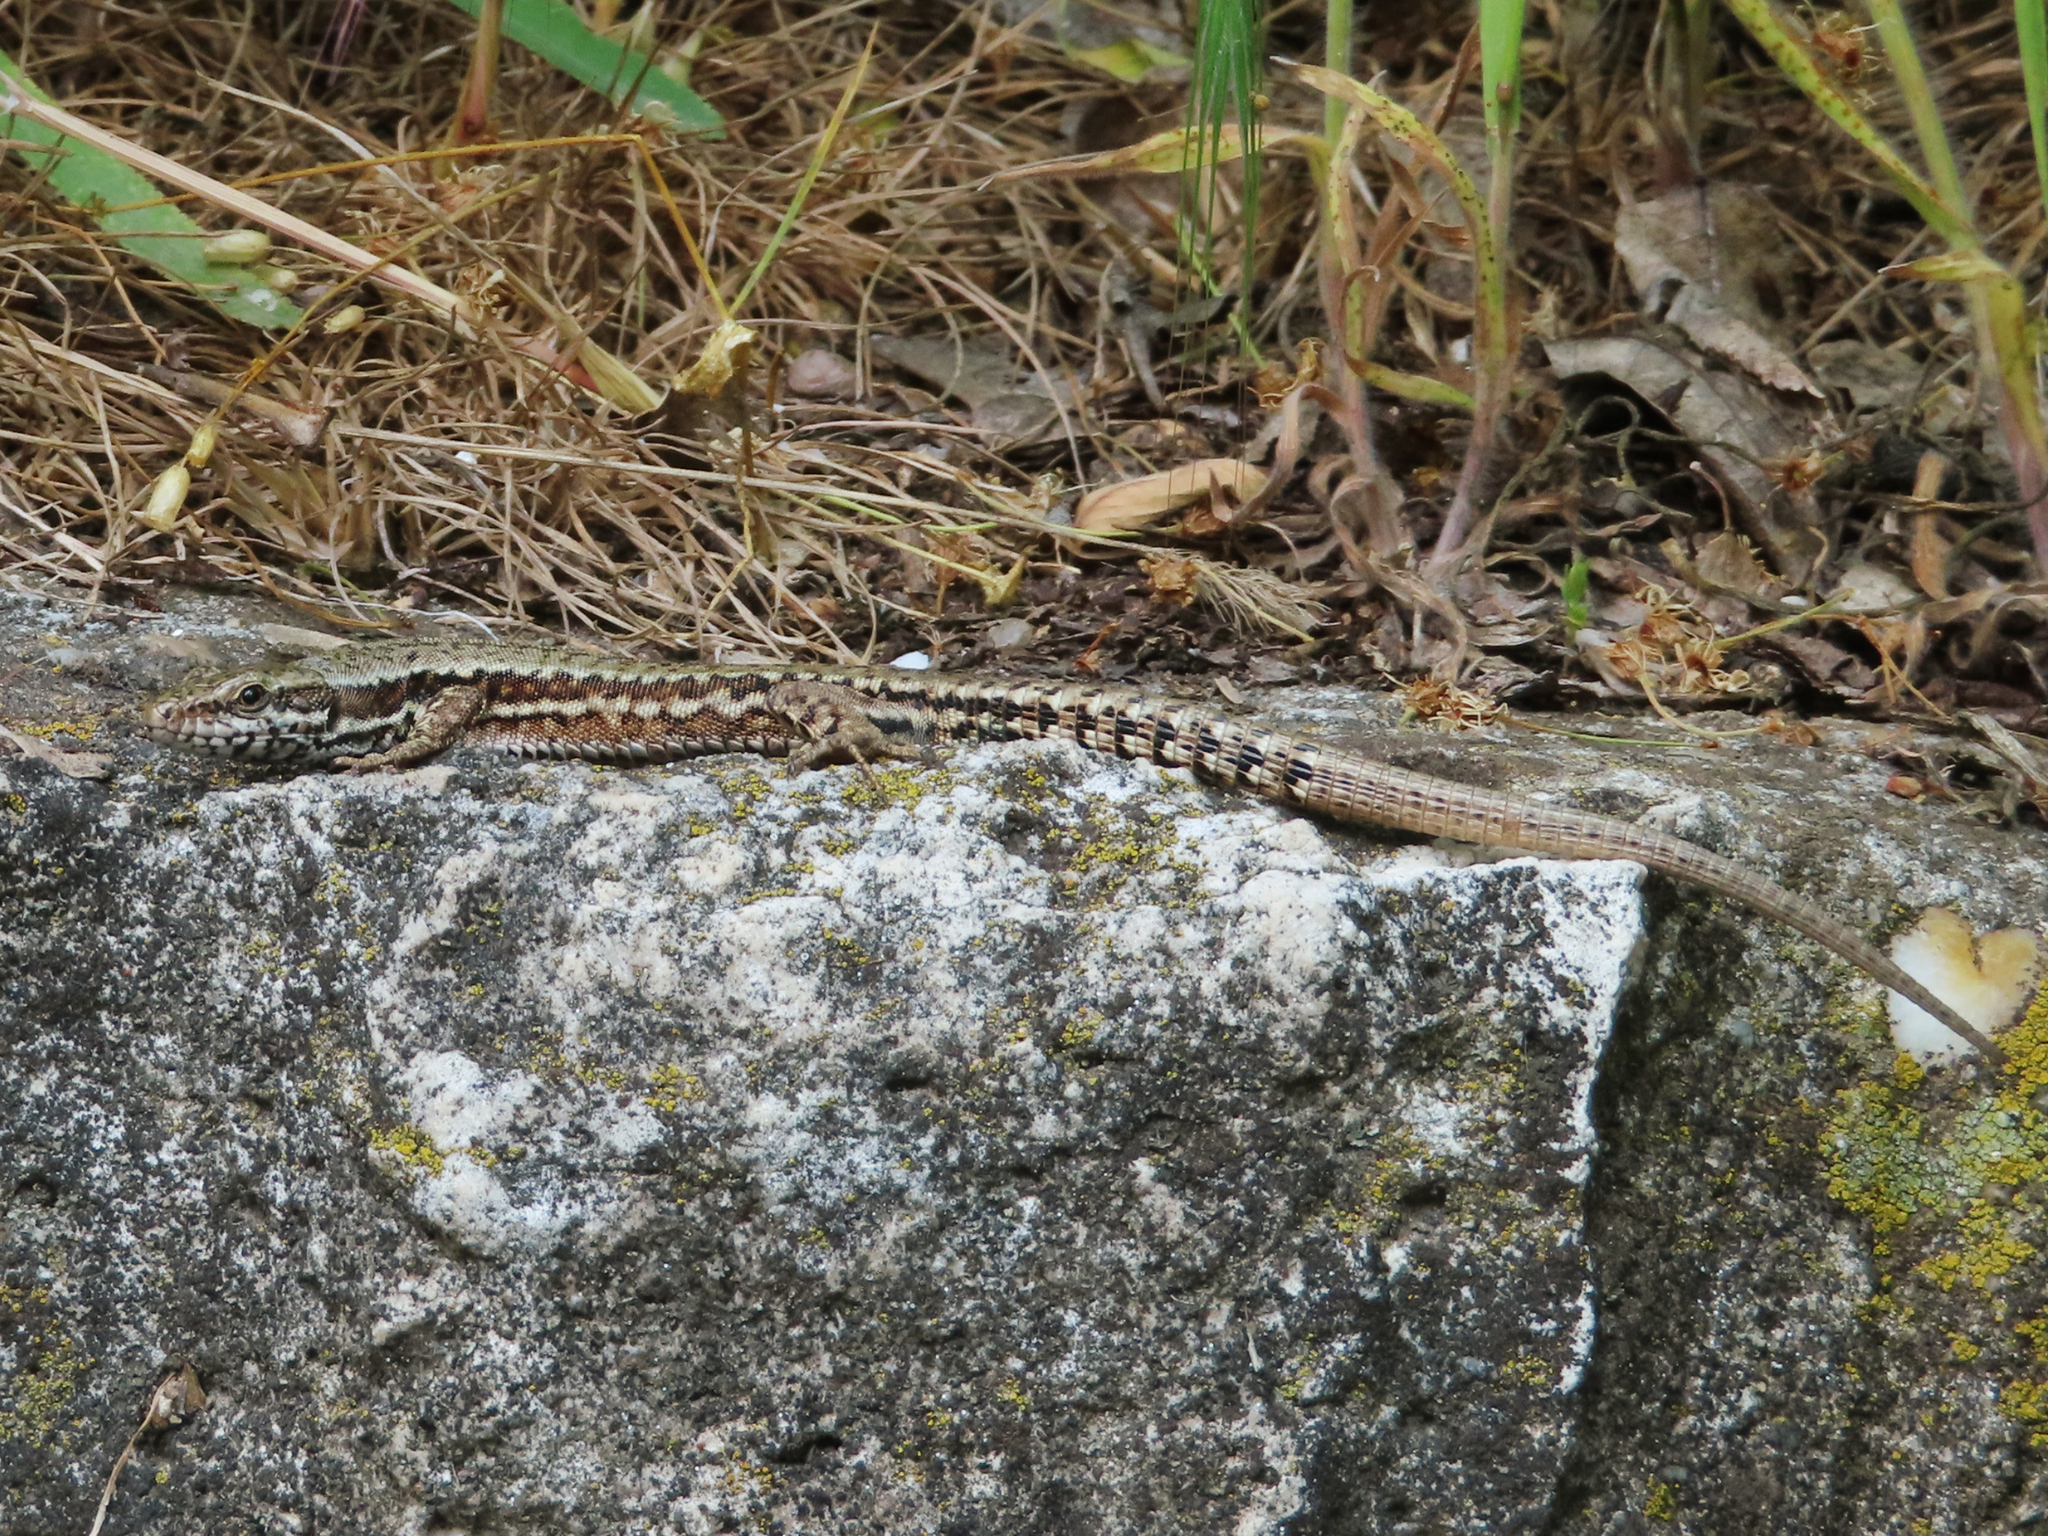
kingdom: Animalia
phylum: Chordata
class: Squamata
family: Lacertidae
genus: Podarcis
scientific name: Podarcis muralis
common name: Common wall lizard
